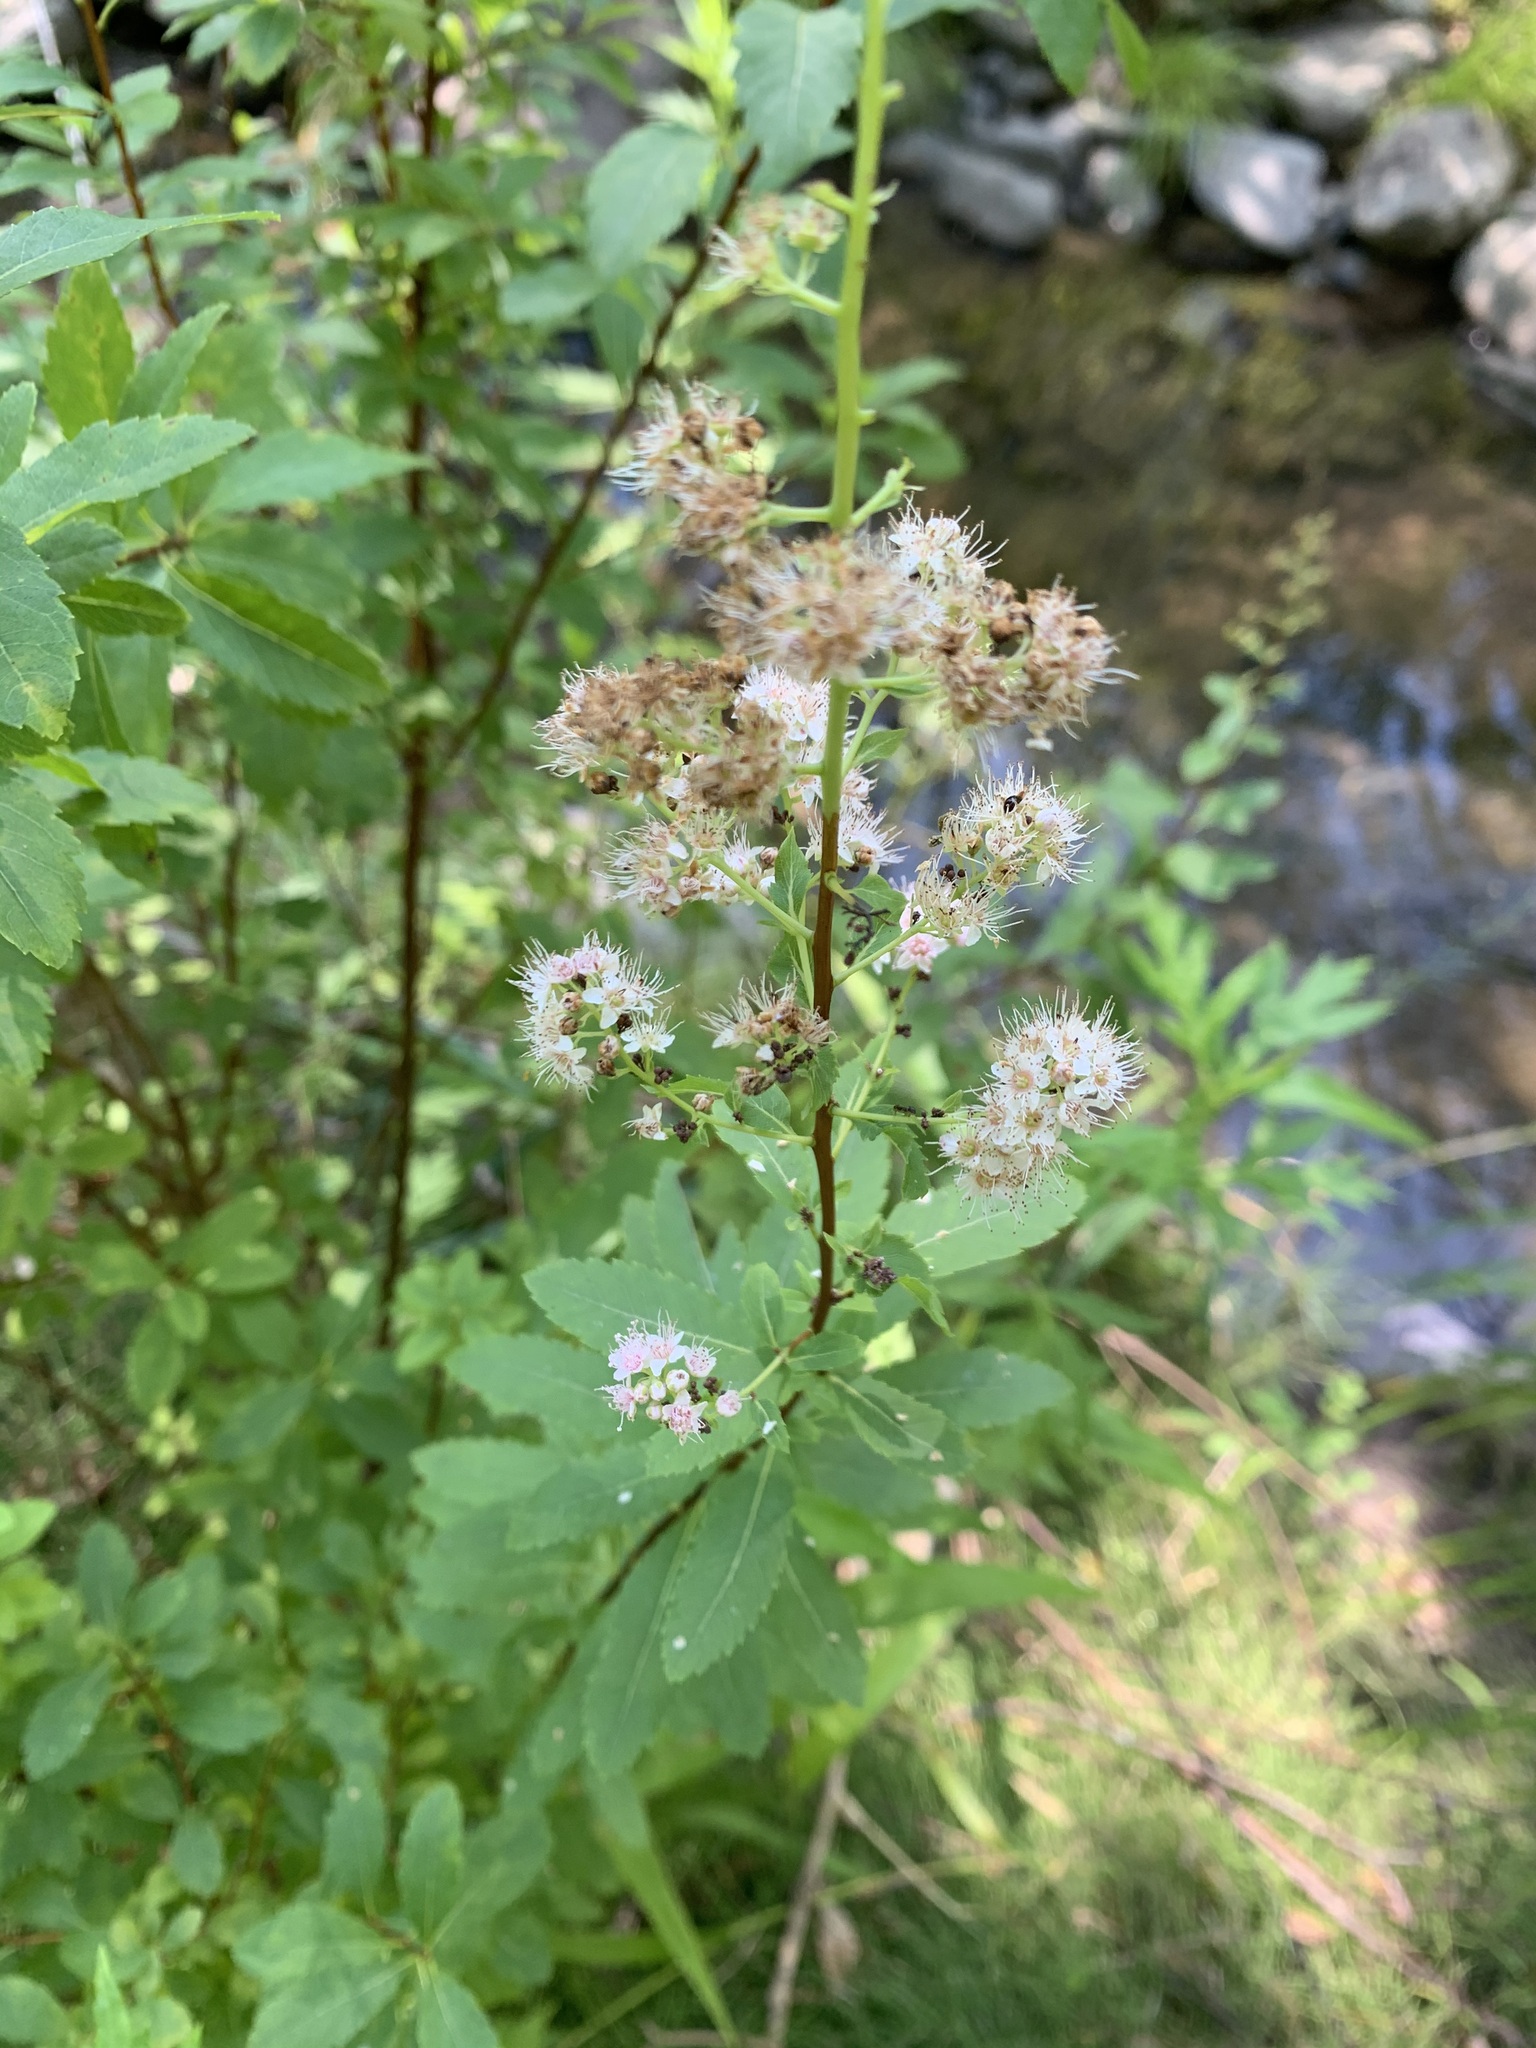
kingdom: Plantae
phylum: Tracheophyta
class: Magnoliopsida
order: Rosales
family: Rosaceae
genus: Spiraea
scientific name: Spiraea alba
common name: Pale bridewort
